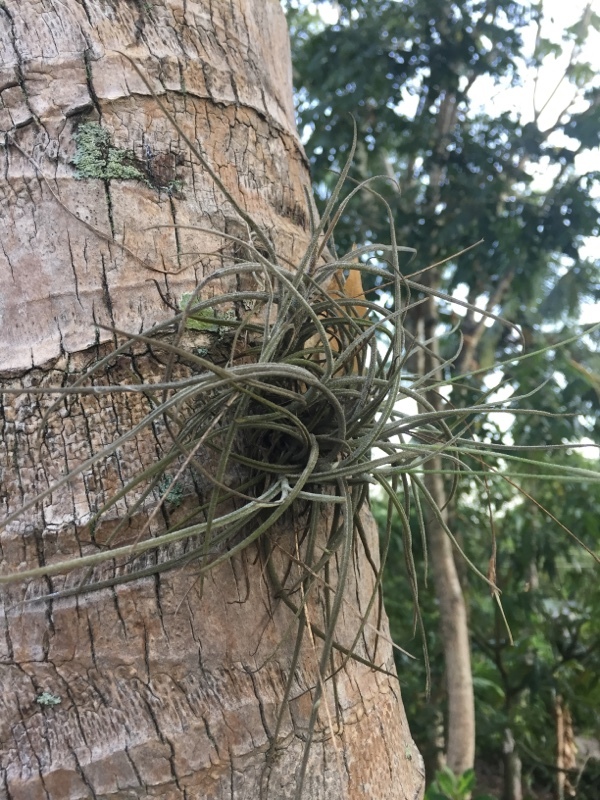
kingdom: Plantae
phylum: Tracheophyta
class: Liliopsida
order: Poales
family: Bromeliaceae
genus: Tillandsia
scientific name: Tillandsia recurvata
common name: Small ballmoss
